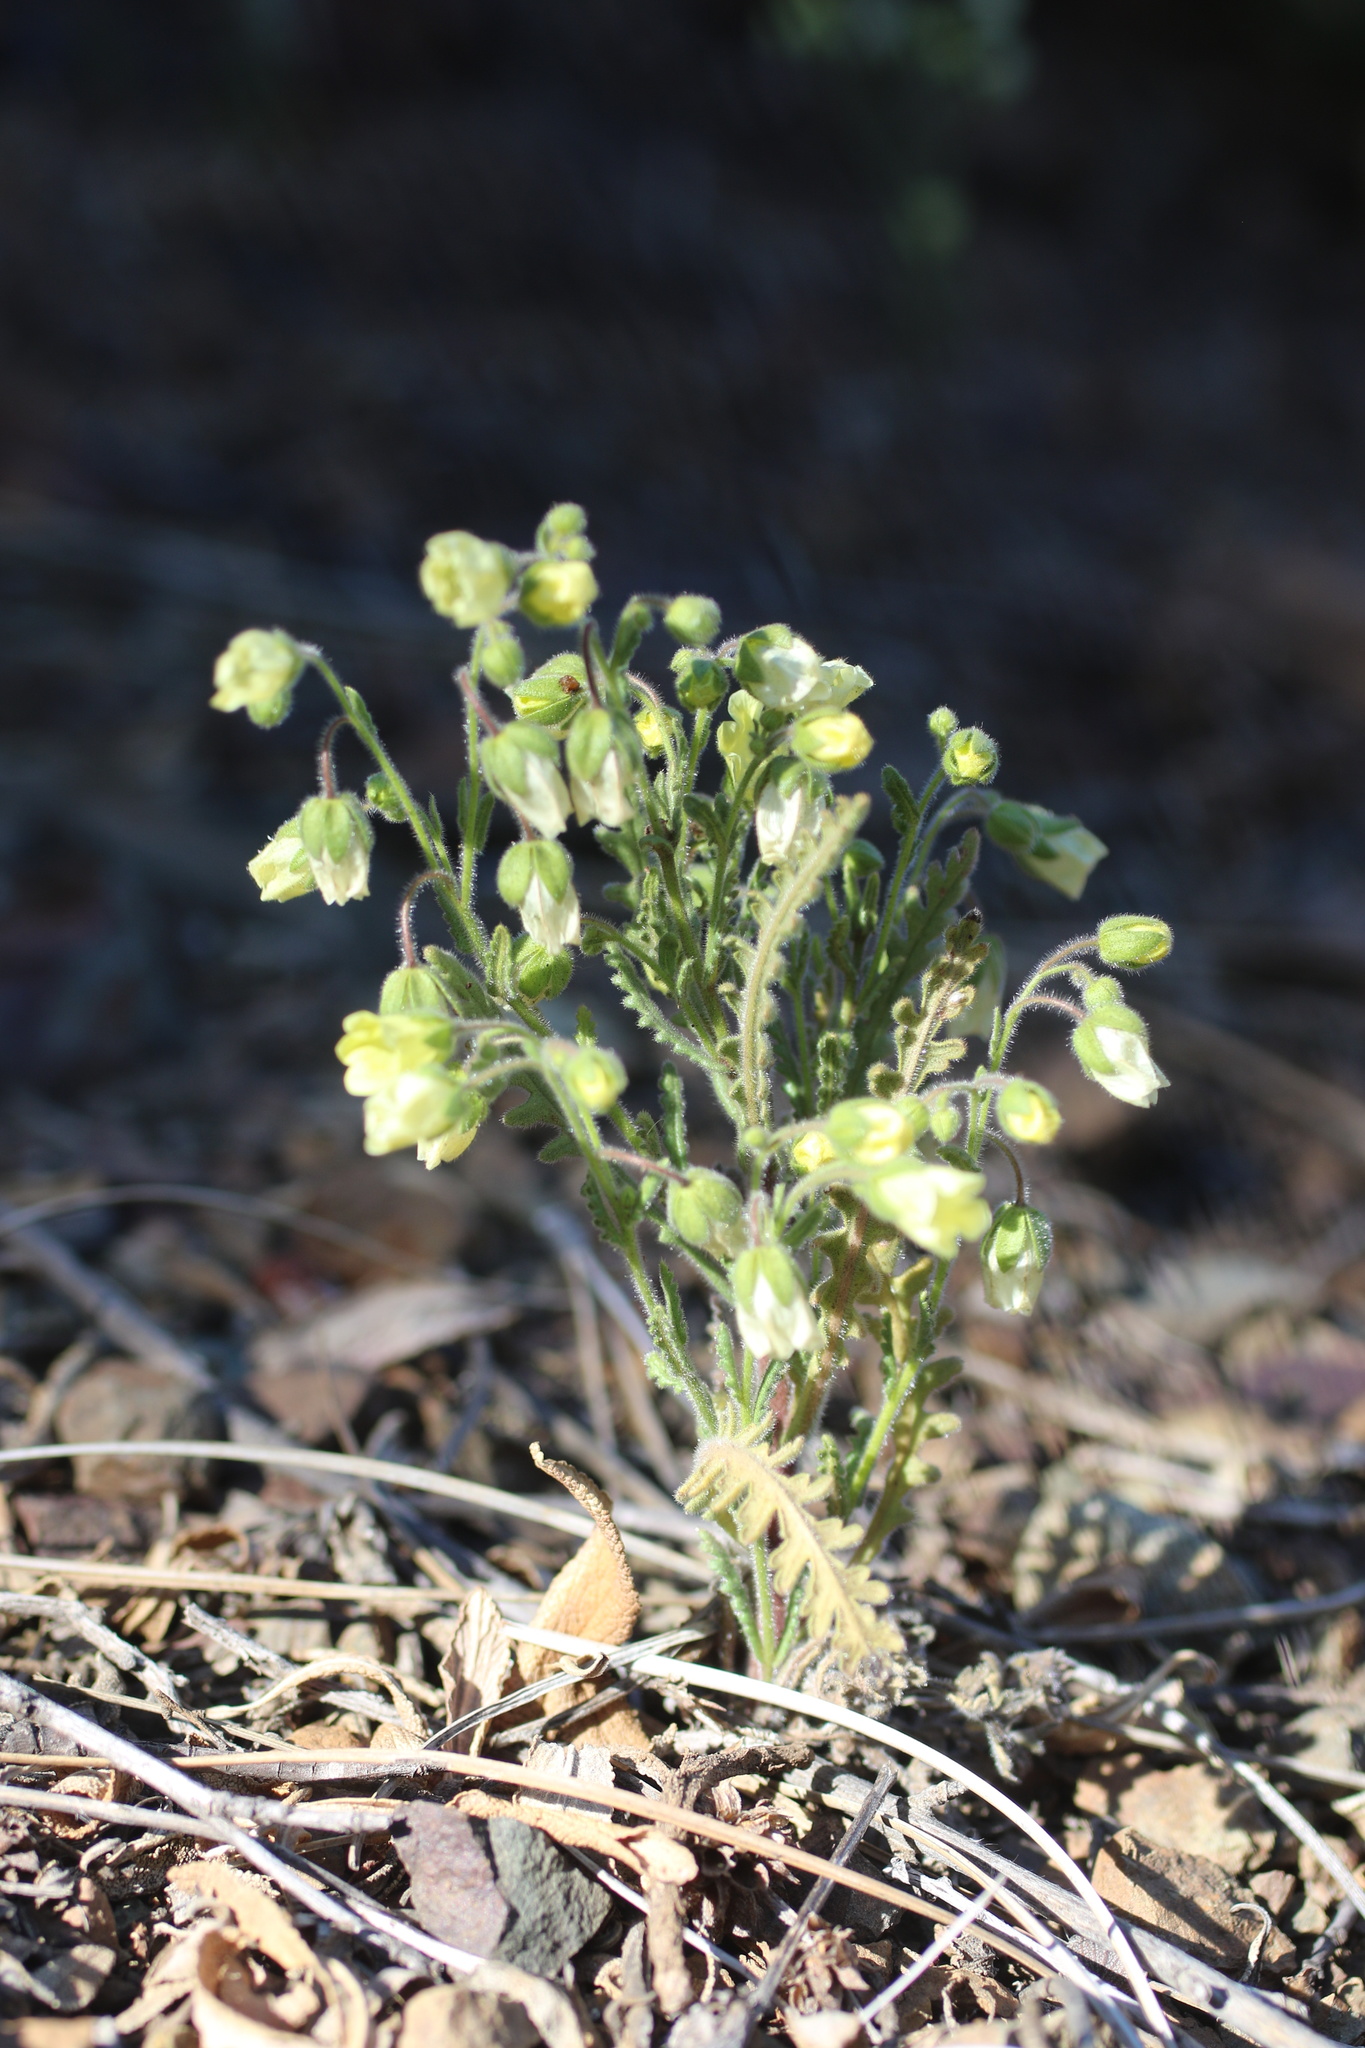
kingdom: Plantae
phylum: Tracheophyta
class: Magnoliopsida
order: Boraginales
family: Hydrophyllaceae
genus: Emmenanthe
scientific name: Emmenanthe penduliflora
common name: Whispering-bells
